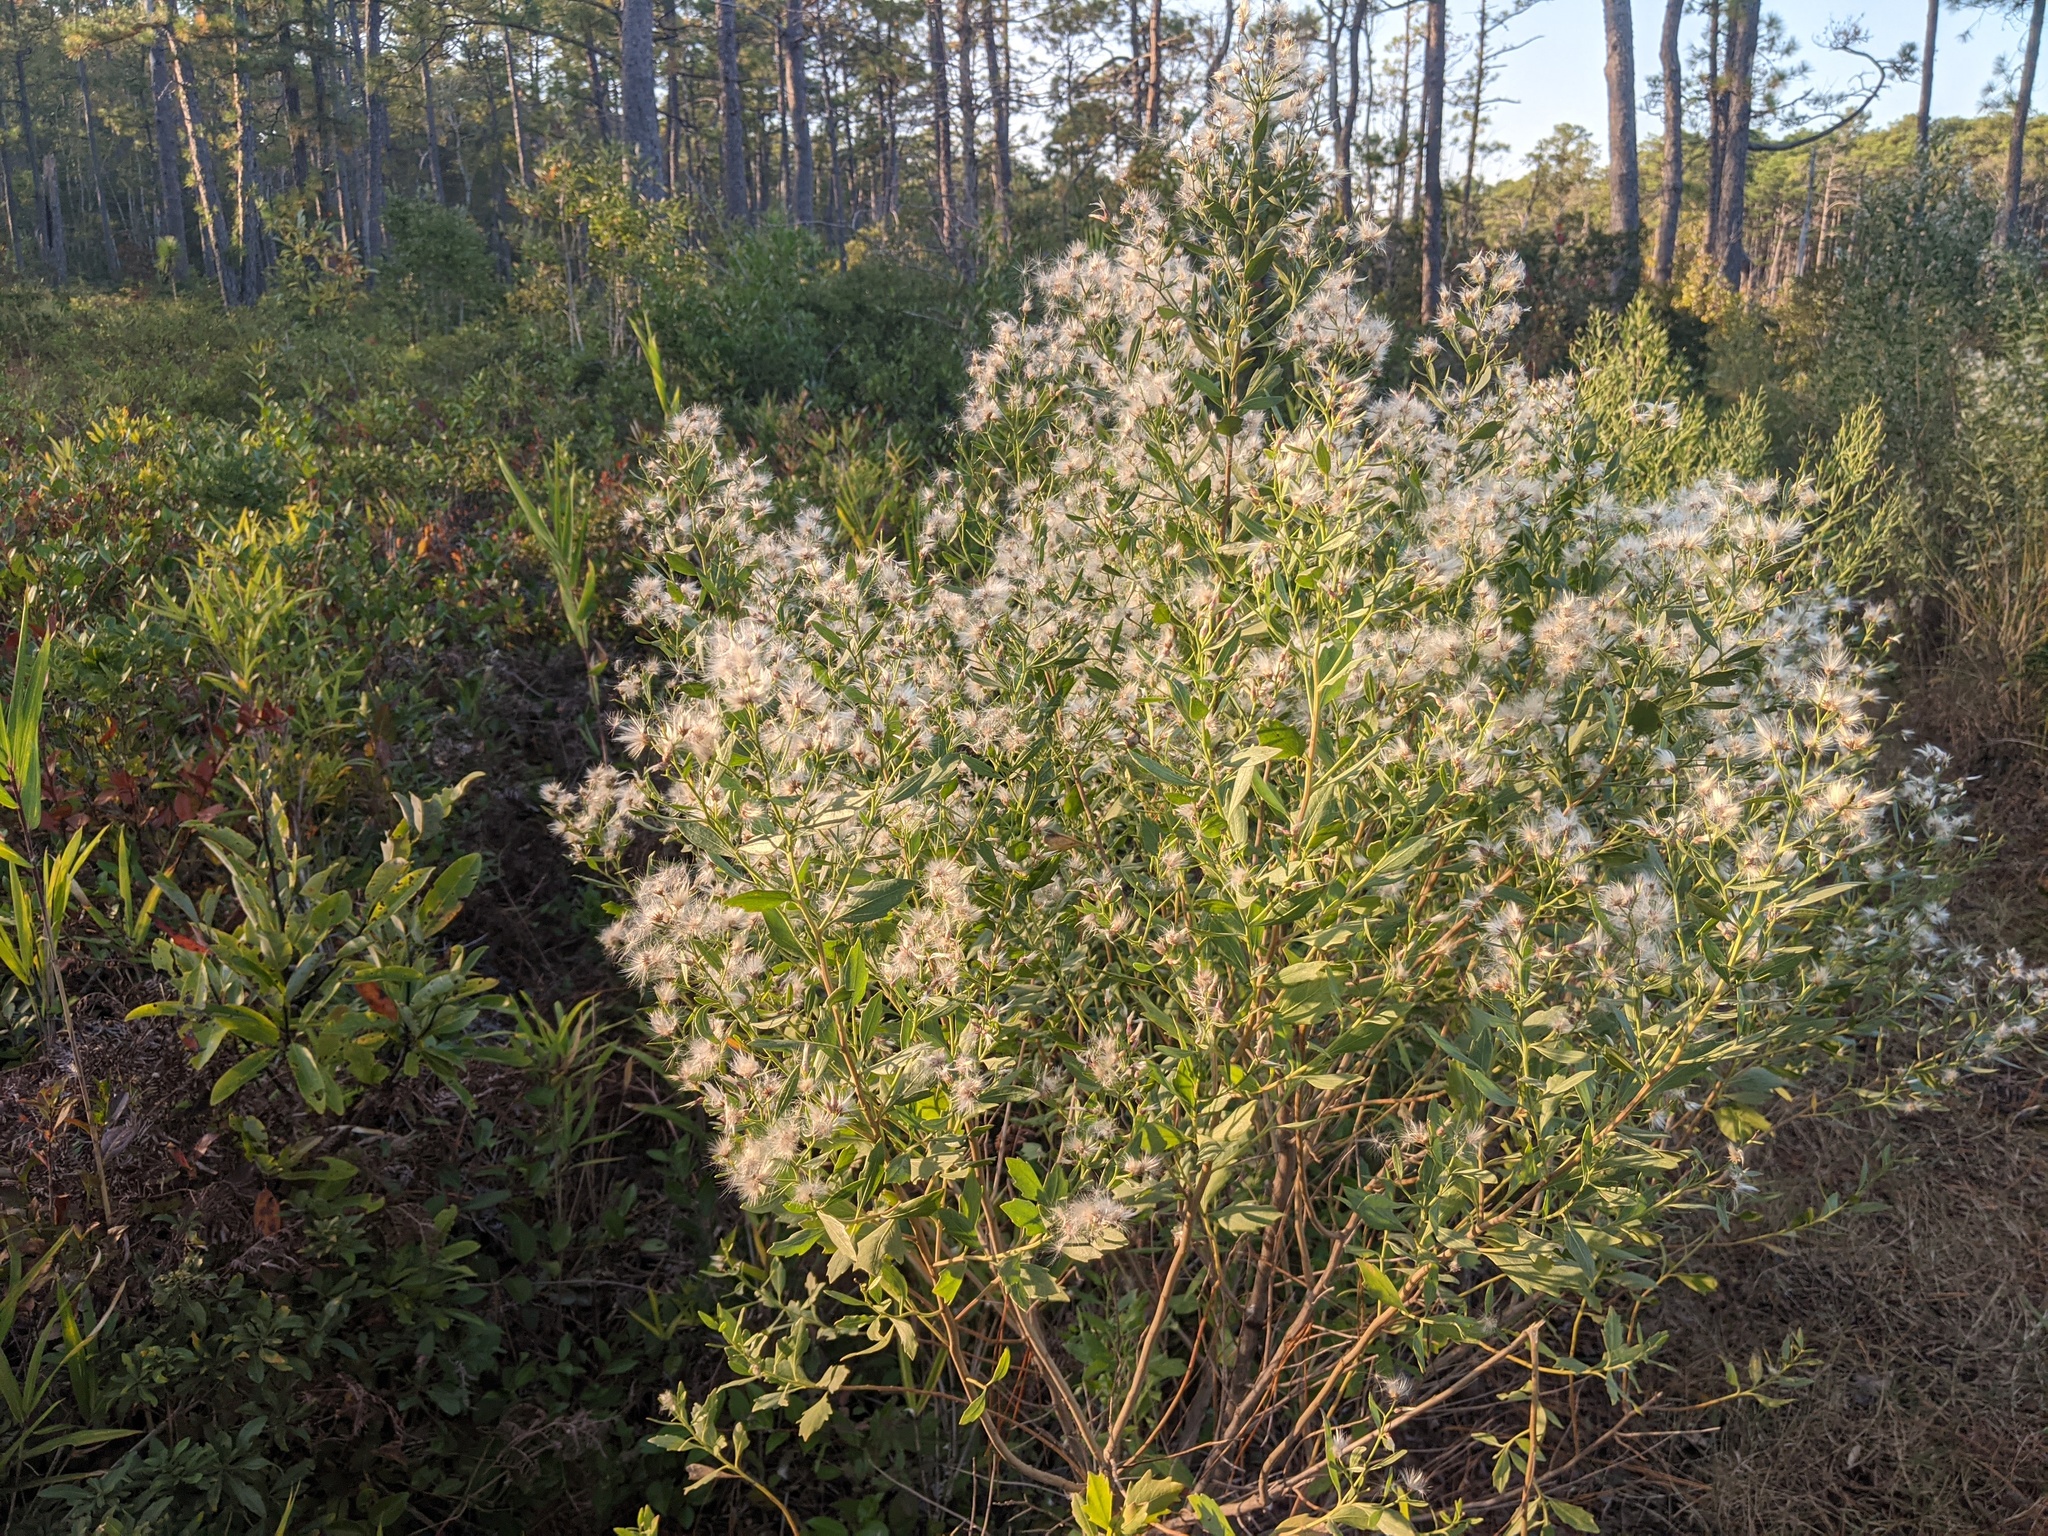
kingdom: Plantae
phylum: Tracheophyta
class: Magnoliopsida
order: Asterales
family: Asteraceae
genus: Baccharis
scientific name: Baccharis halimifolia
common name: Eastern baccharis
